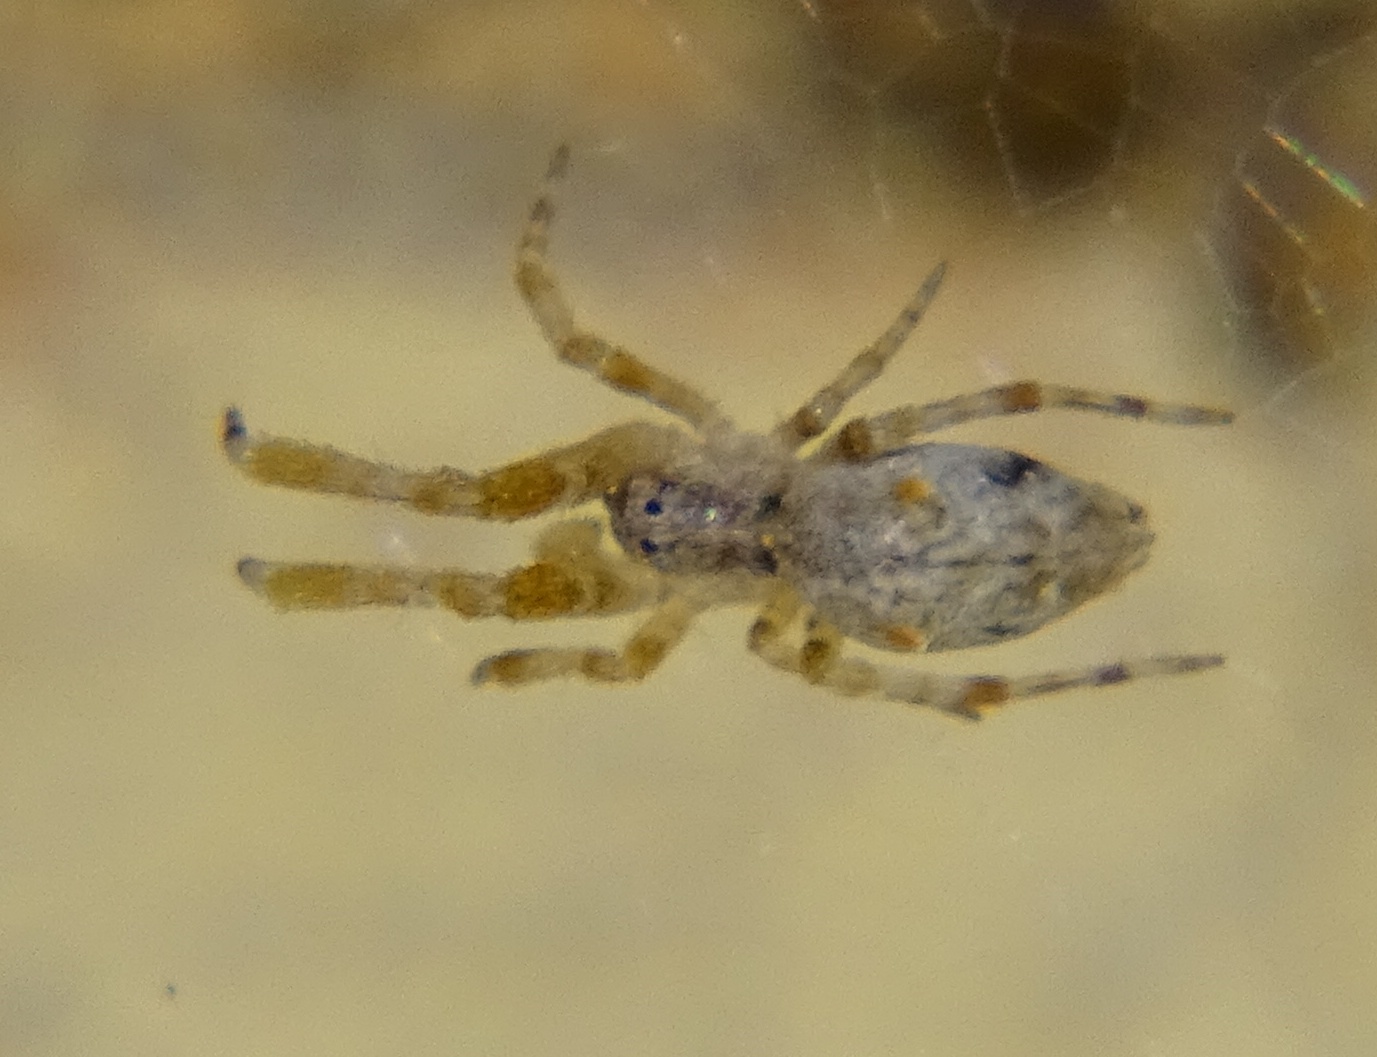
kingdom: Animalia
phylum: Arthropoda
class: Arachnida
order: Araneae
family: Uloboridae
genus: Uloborus
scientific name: Uloborus diversus
